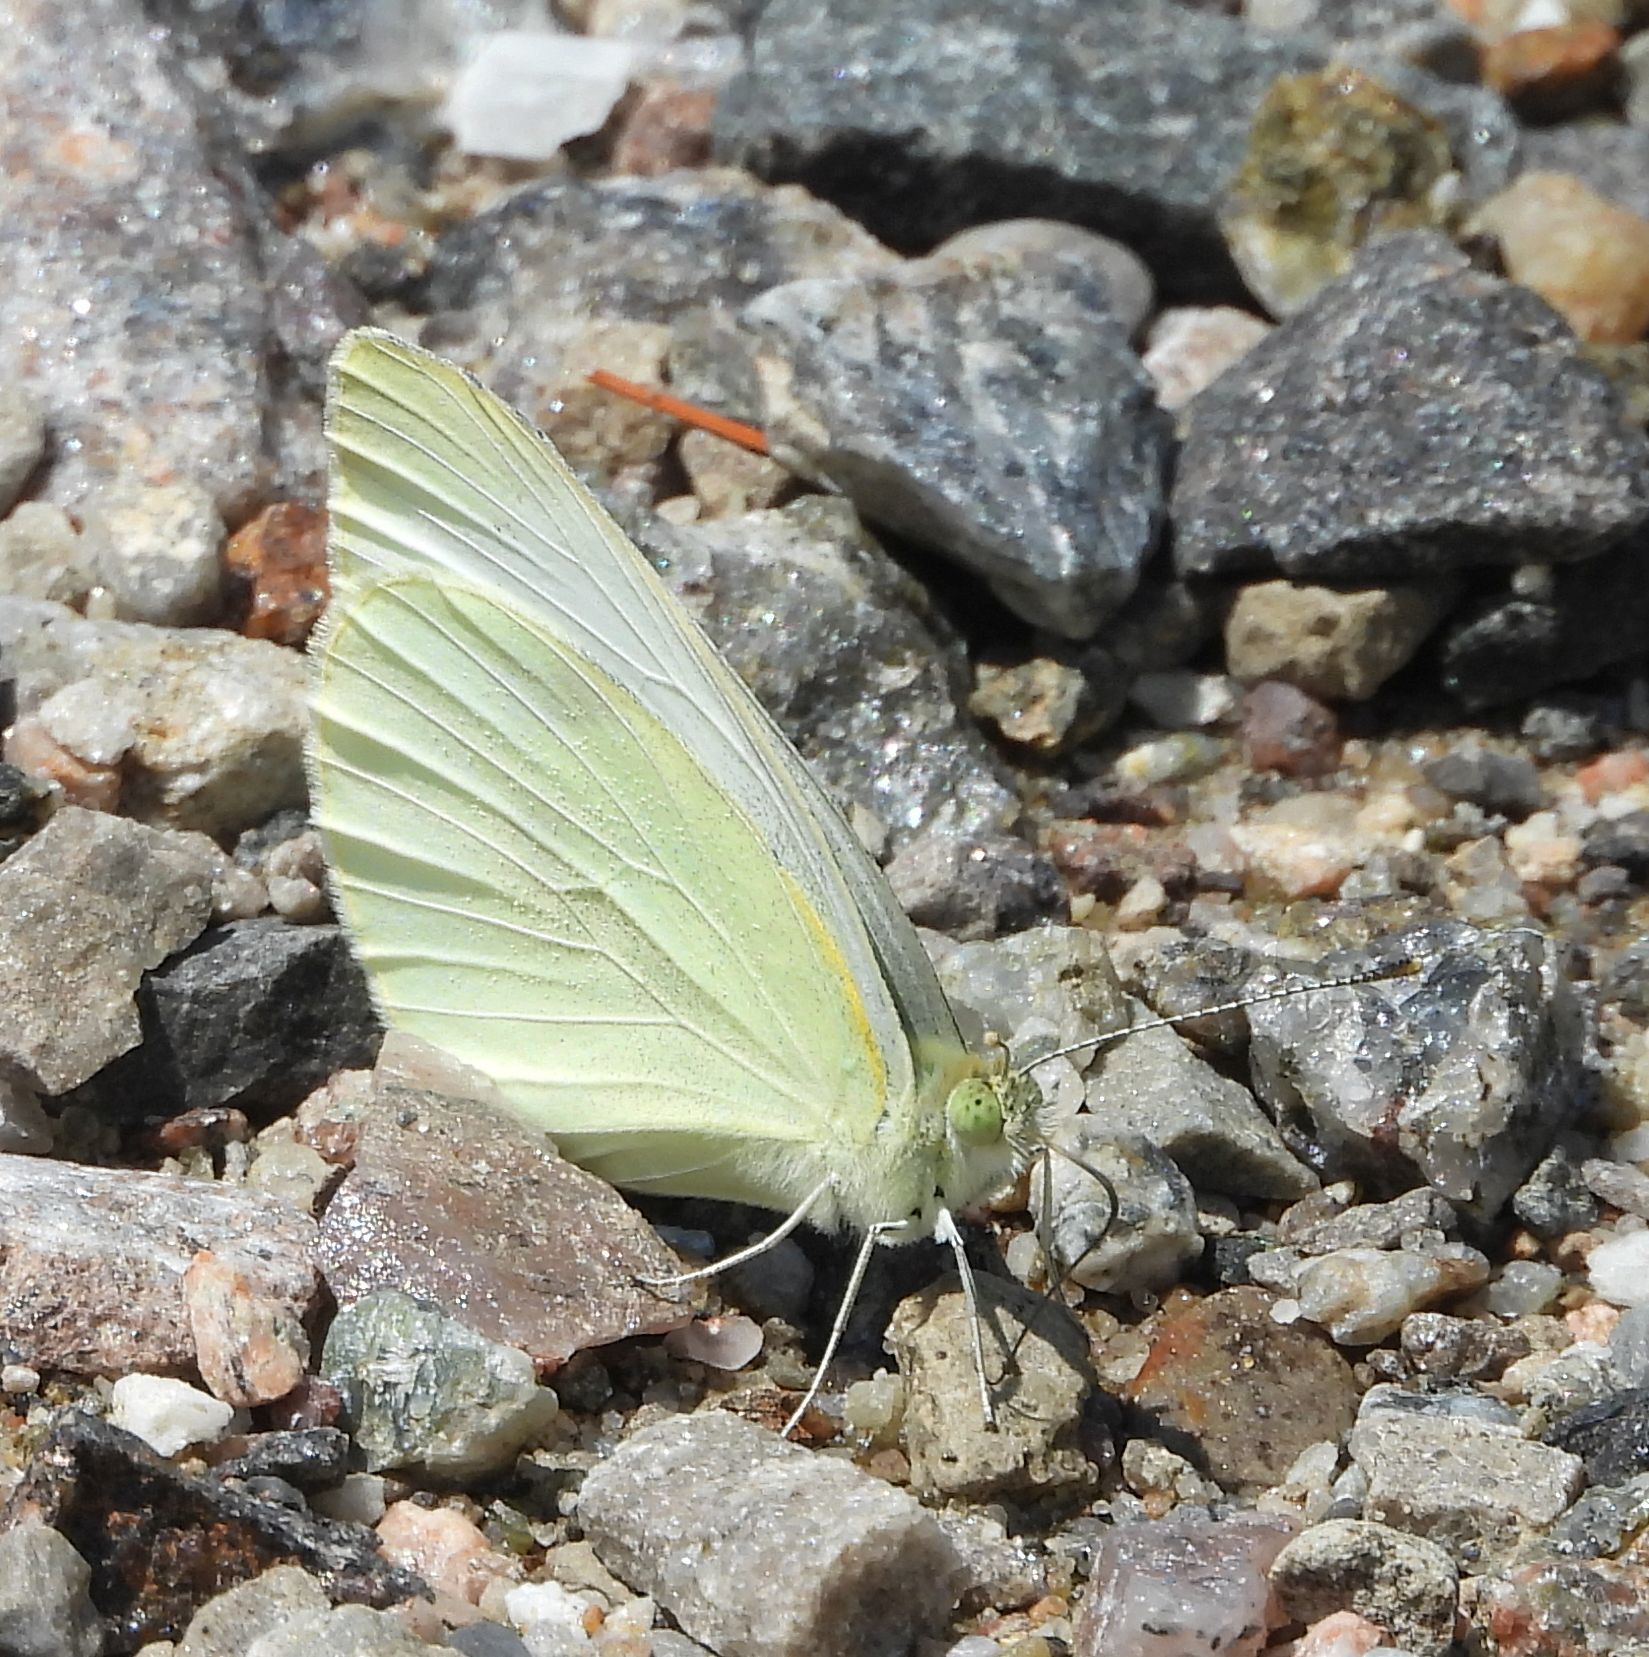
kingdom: Animalia
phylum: Arthropoda
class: Insecta
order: Lepidoptera
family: Pieridae
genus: Pieris
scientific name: Pieris rapae
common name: Small white
